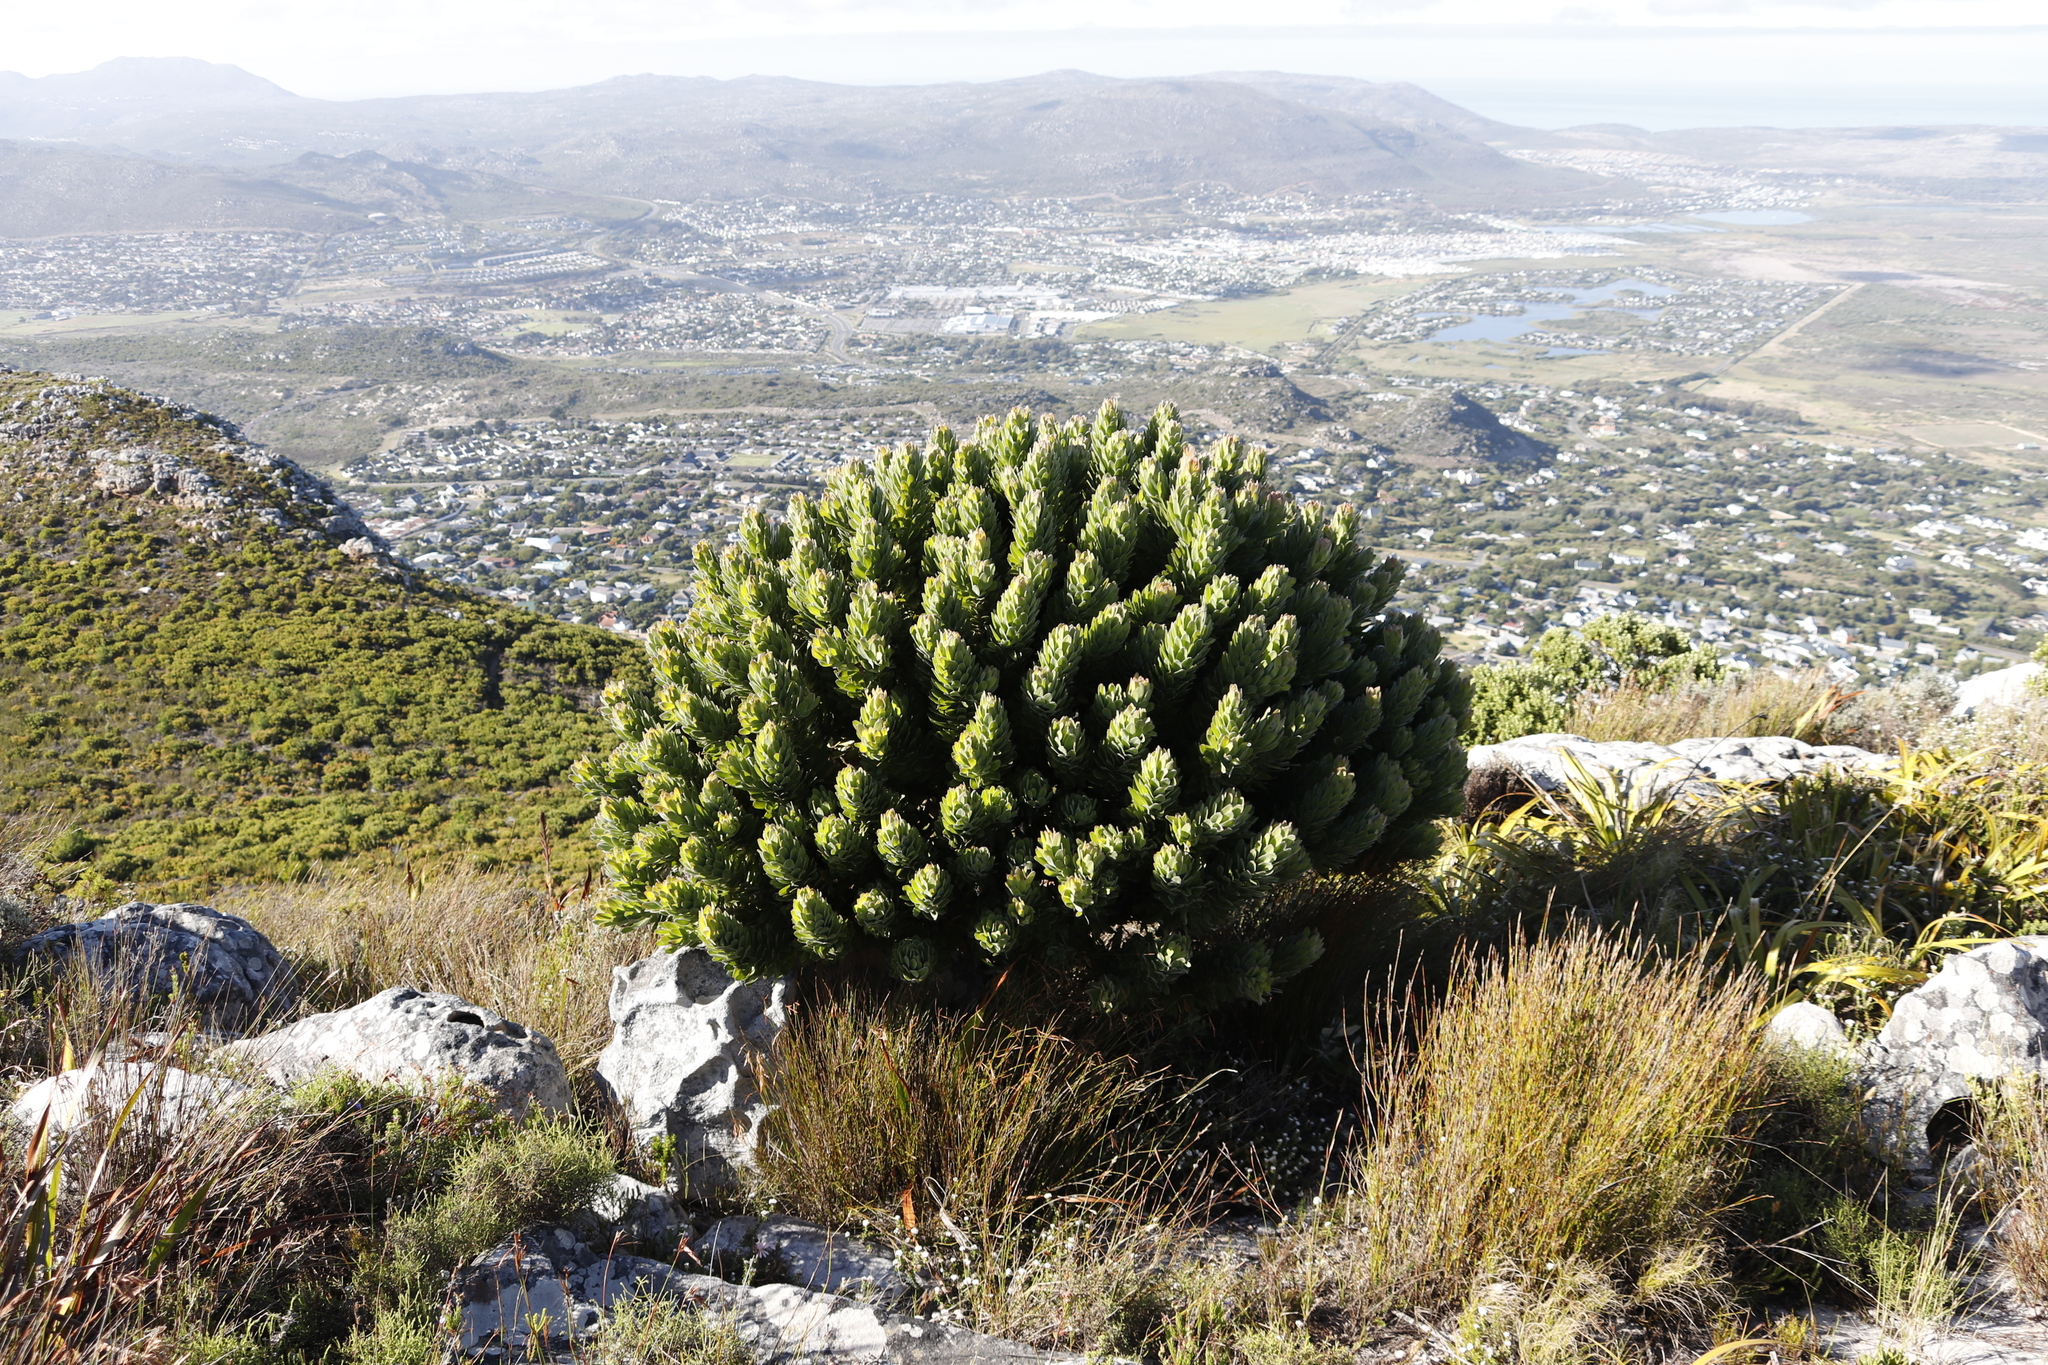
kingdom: Plantae
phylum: Tracheophyta
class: Magnoliopsida
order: Proteales
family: Proteaceae
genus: Mimetes
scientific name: Mimetes fimbriifolius
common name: Fringed bottlebrush
